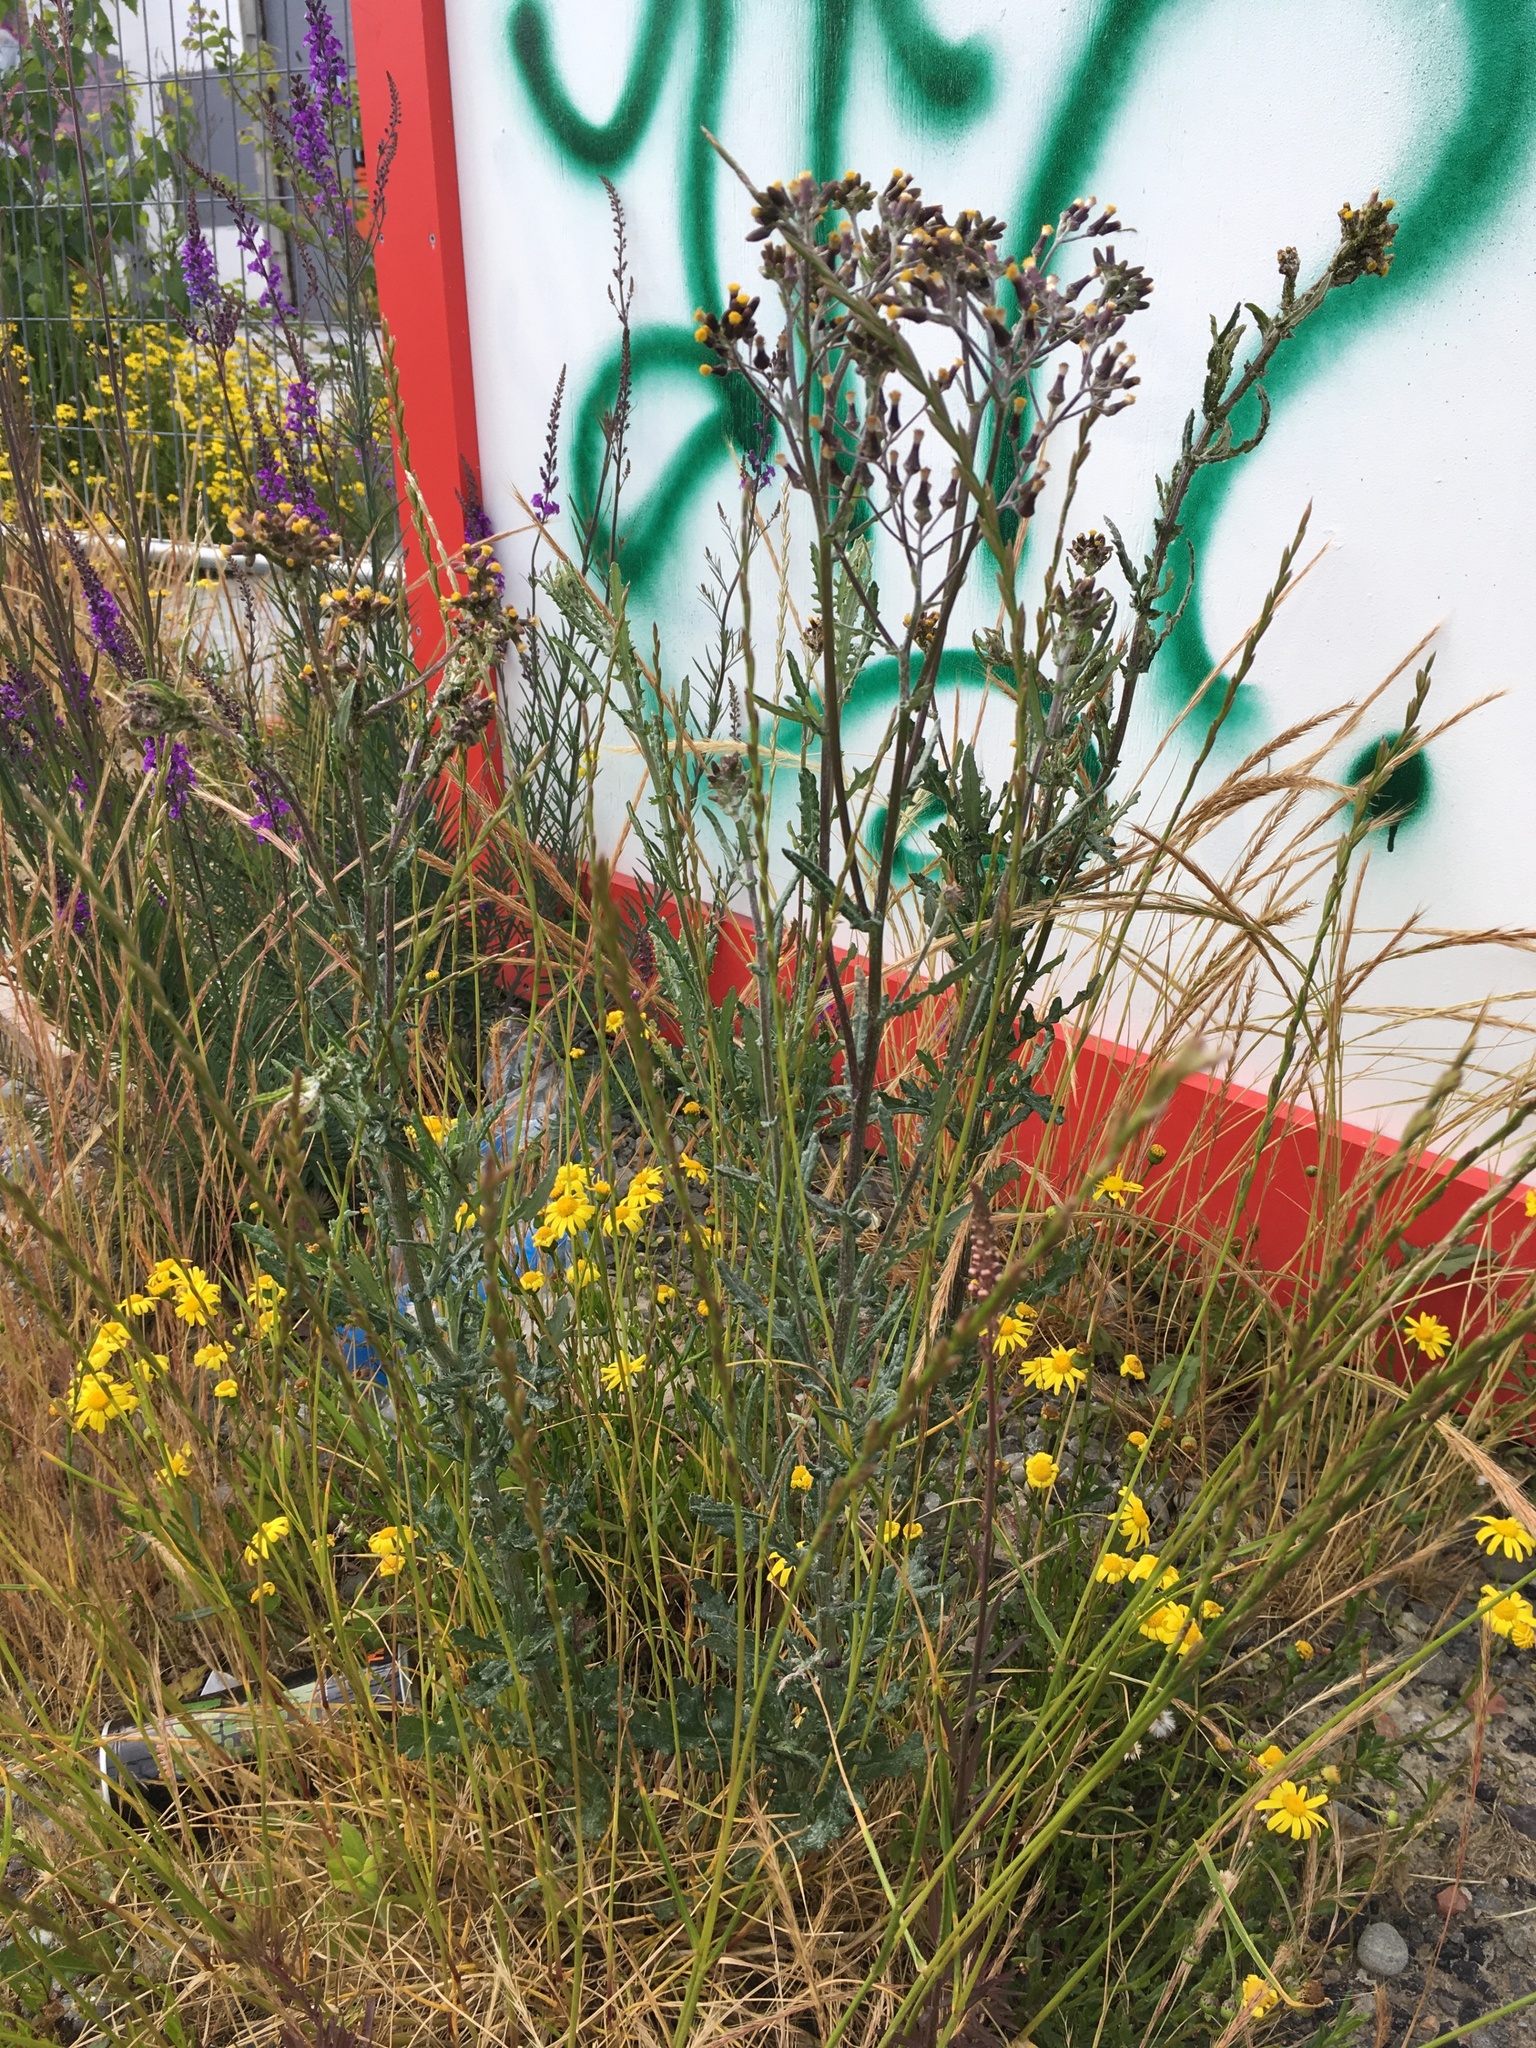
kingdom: Plantae
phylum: Tracheophyta
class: Magnoliopsida
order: Asterales
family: Asteraceae
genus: Senecio
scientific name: Senecio glomeratus
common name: Cutleaf burnweed
